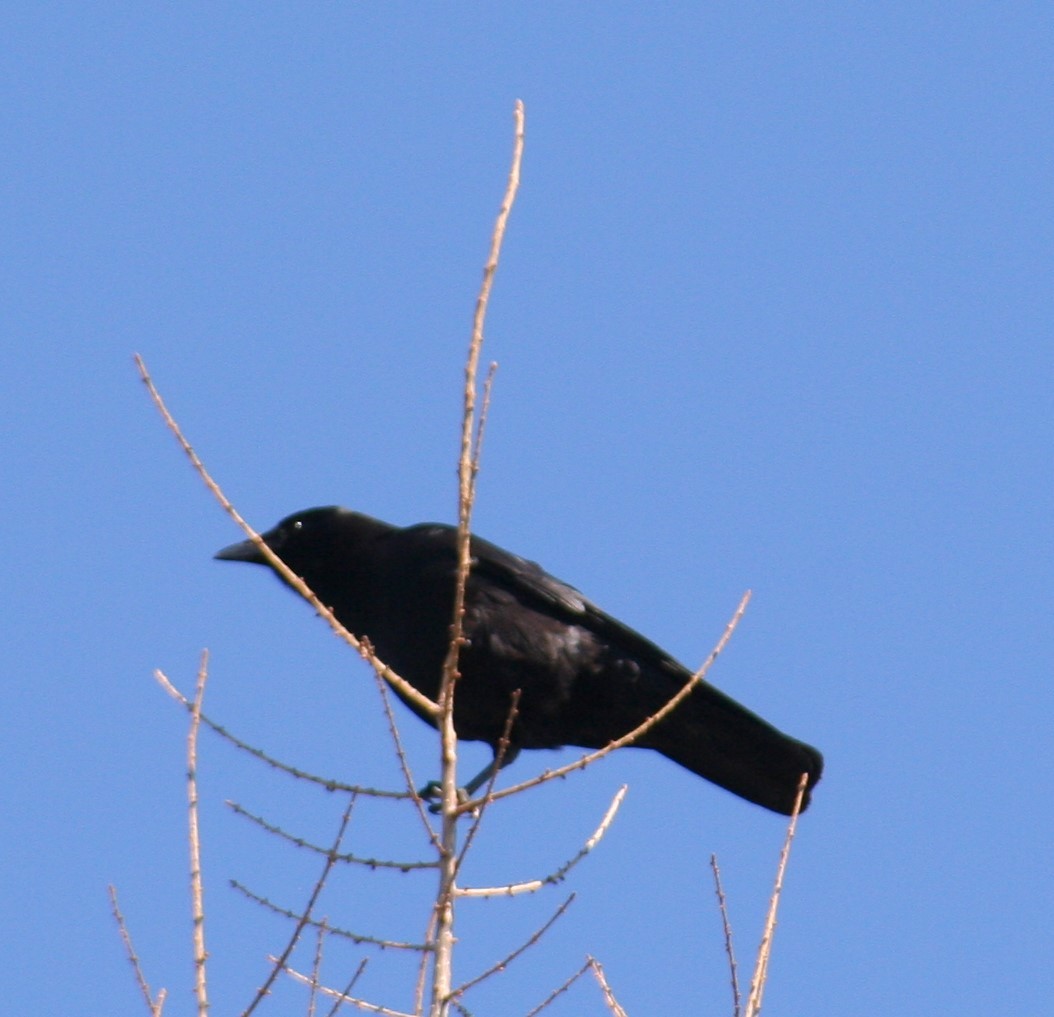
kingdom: Animalia
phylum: Chordata
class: Aves
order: Passeriformes
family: Corvidae
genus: Corvus
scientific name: Corvus brachyrhynchos
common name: American crow
